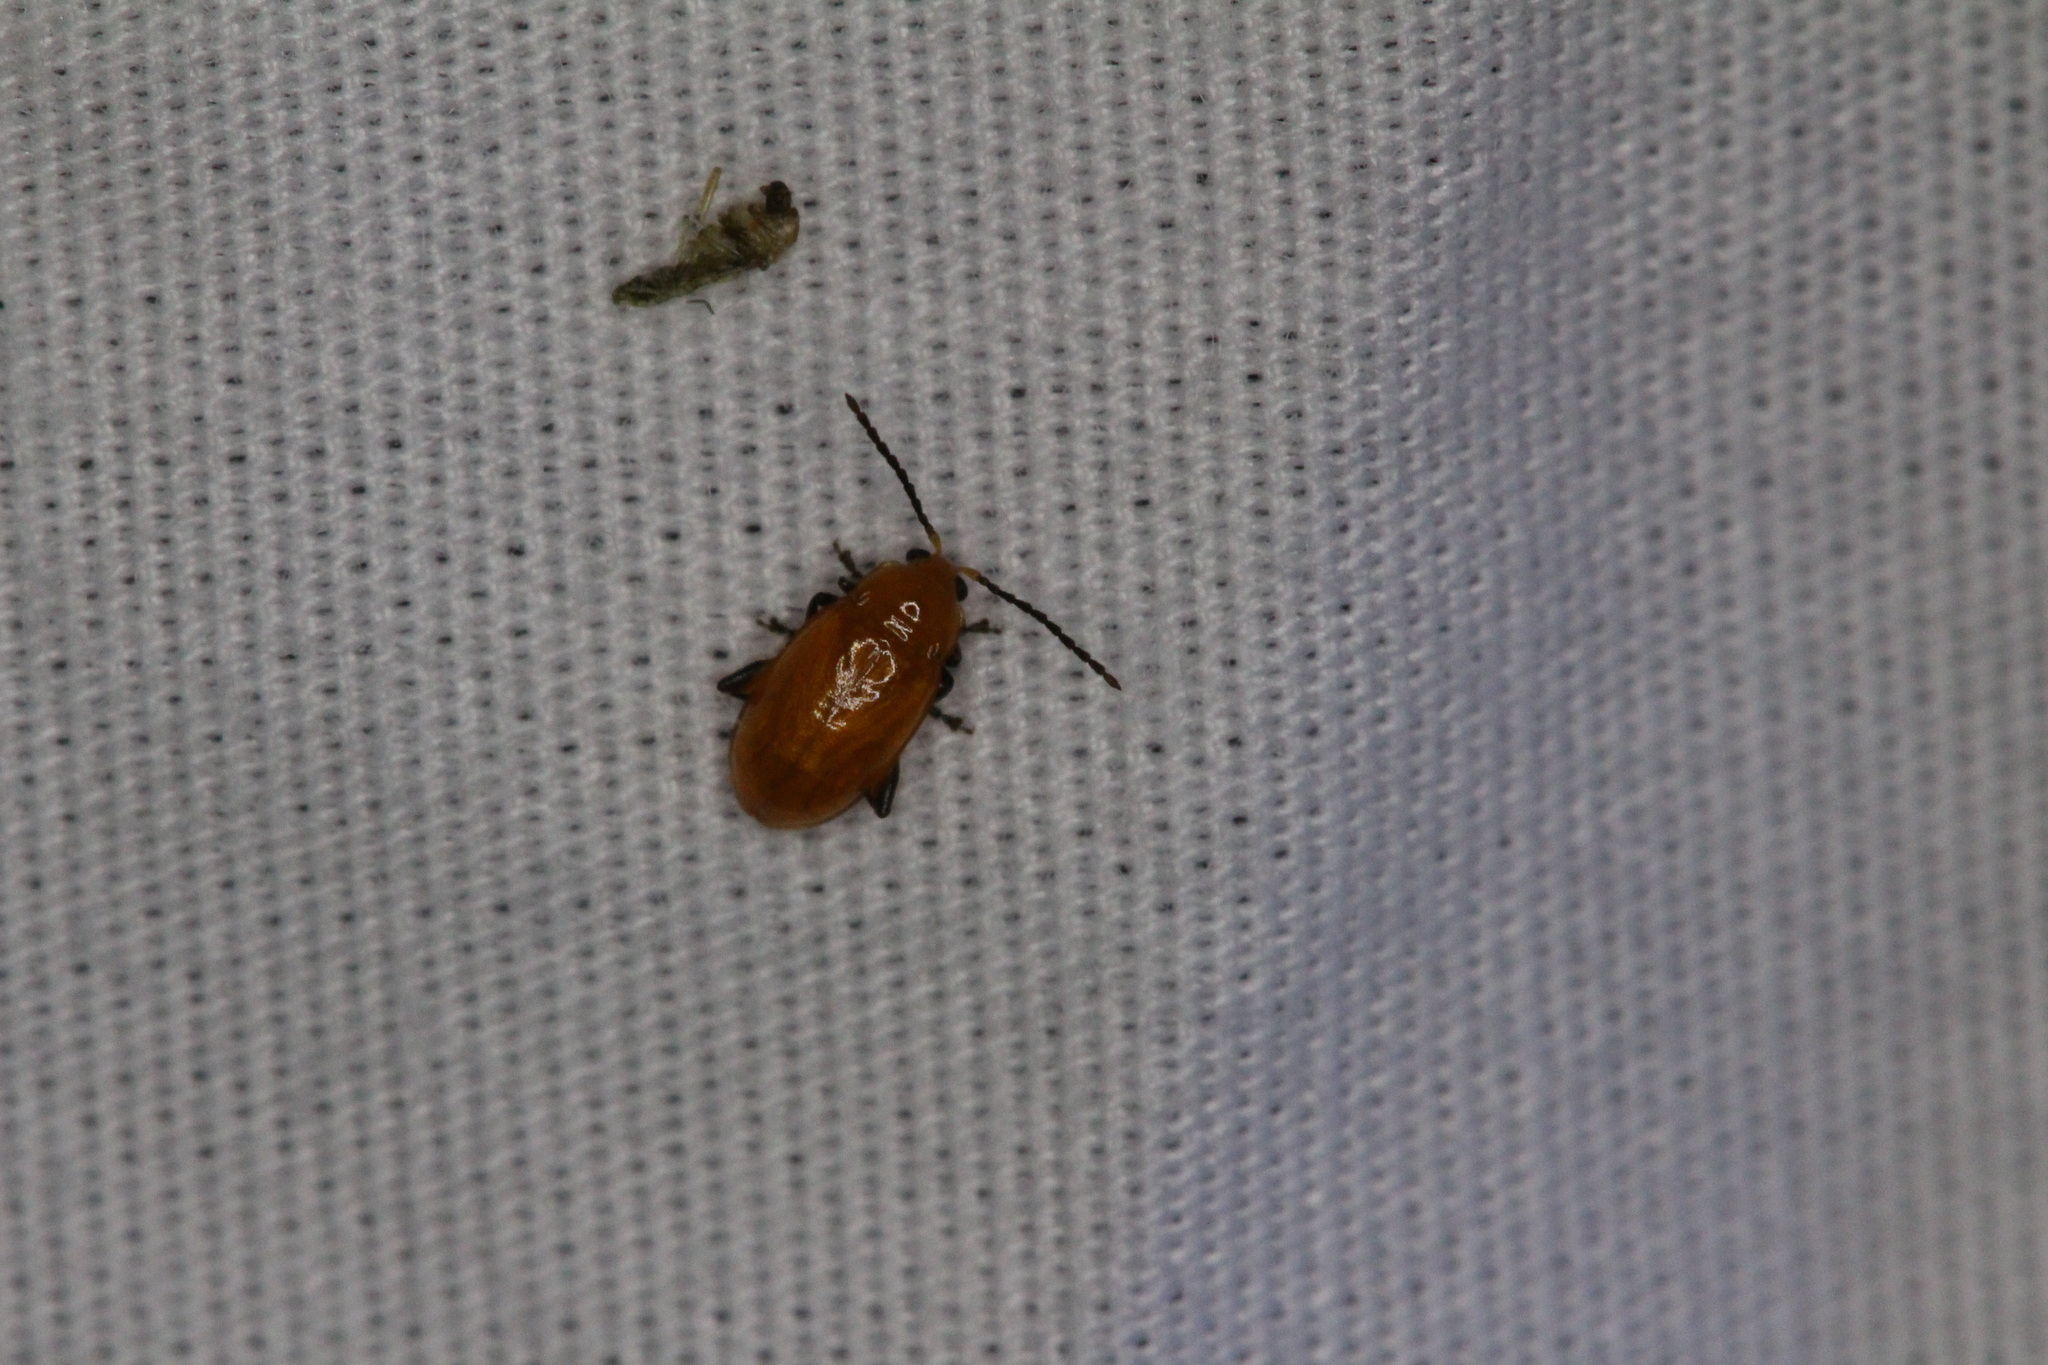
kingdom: Animalia
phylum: Arthropoda
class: Insecta
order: Coleoptera
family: Chrysomelidae
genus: Parchicola
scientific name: Parchicola tibialis
